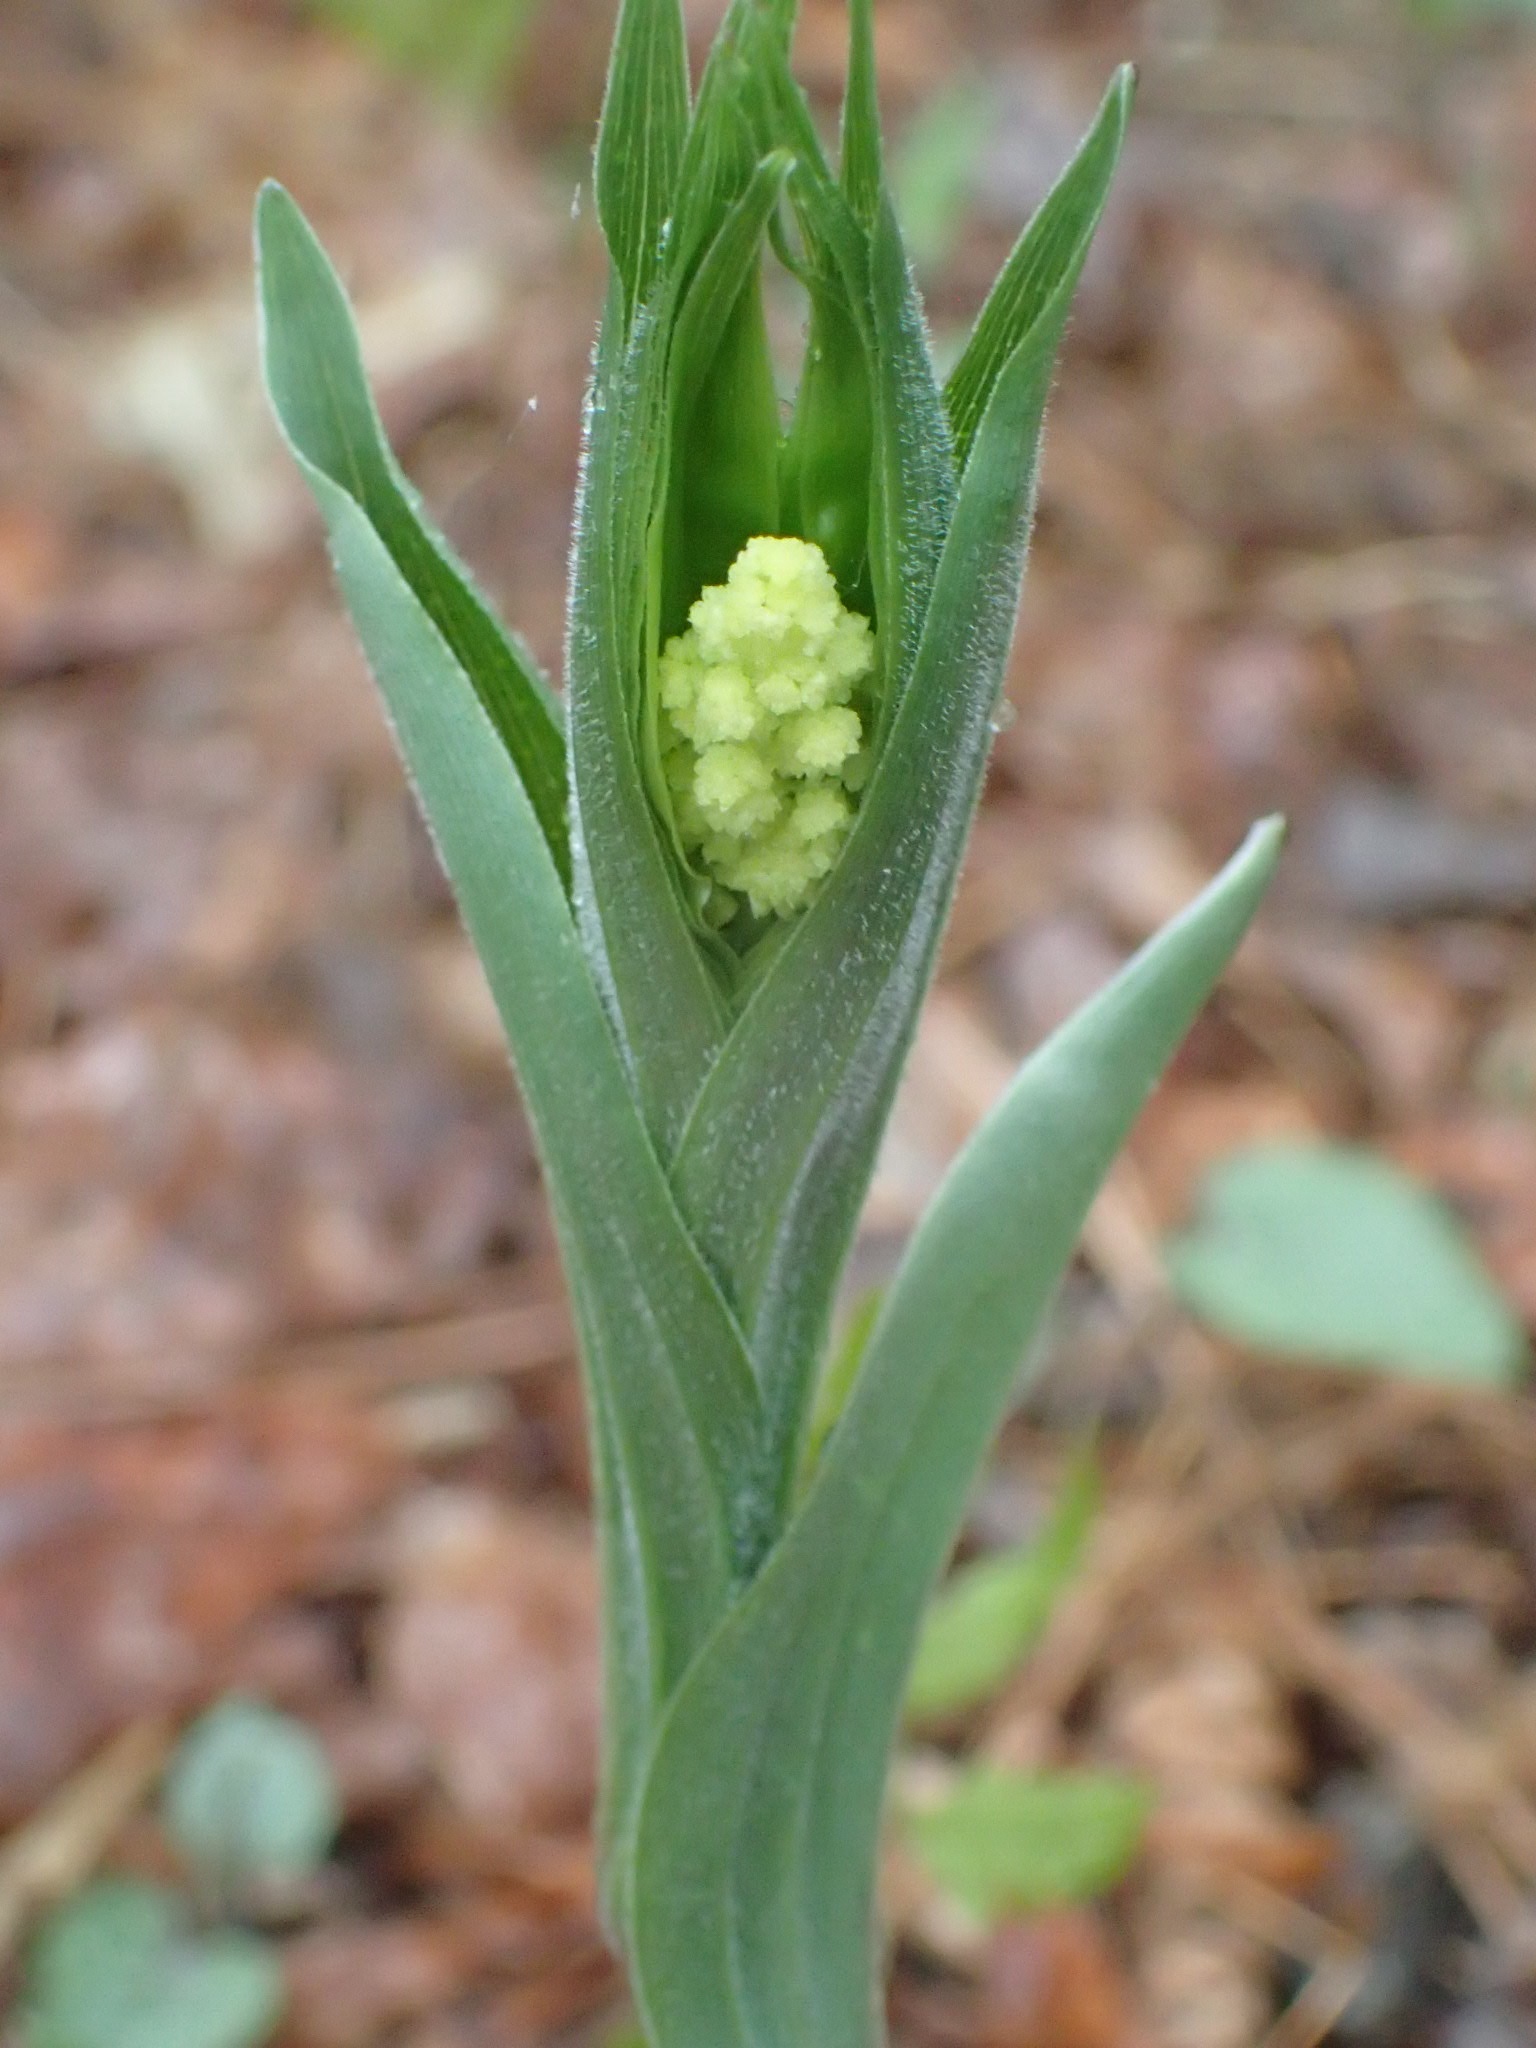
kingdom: Plantae
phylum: Tracheophyta
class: Liliopsida
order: Asparagales
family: Asparagaceae
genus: Maianthemum
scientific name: Maianthemum racemosum
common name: False spikenard
